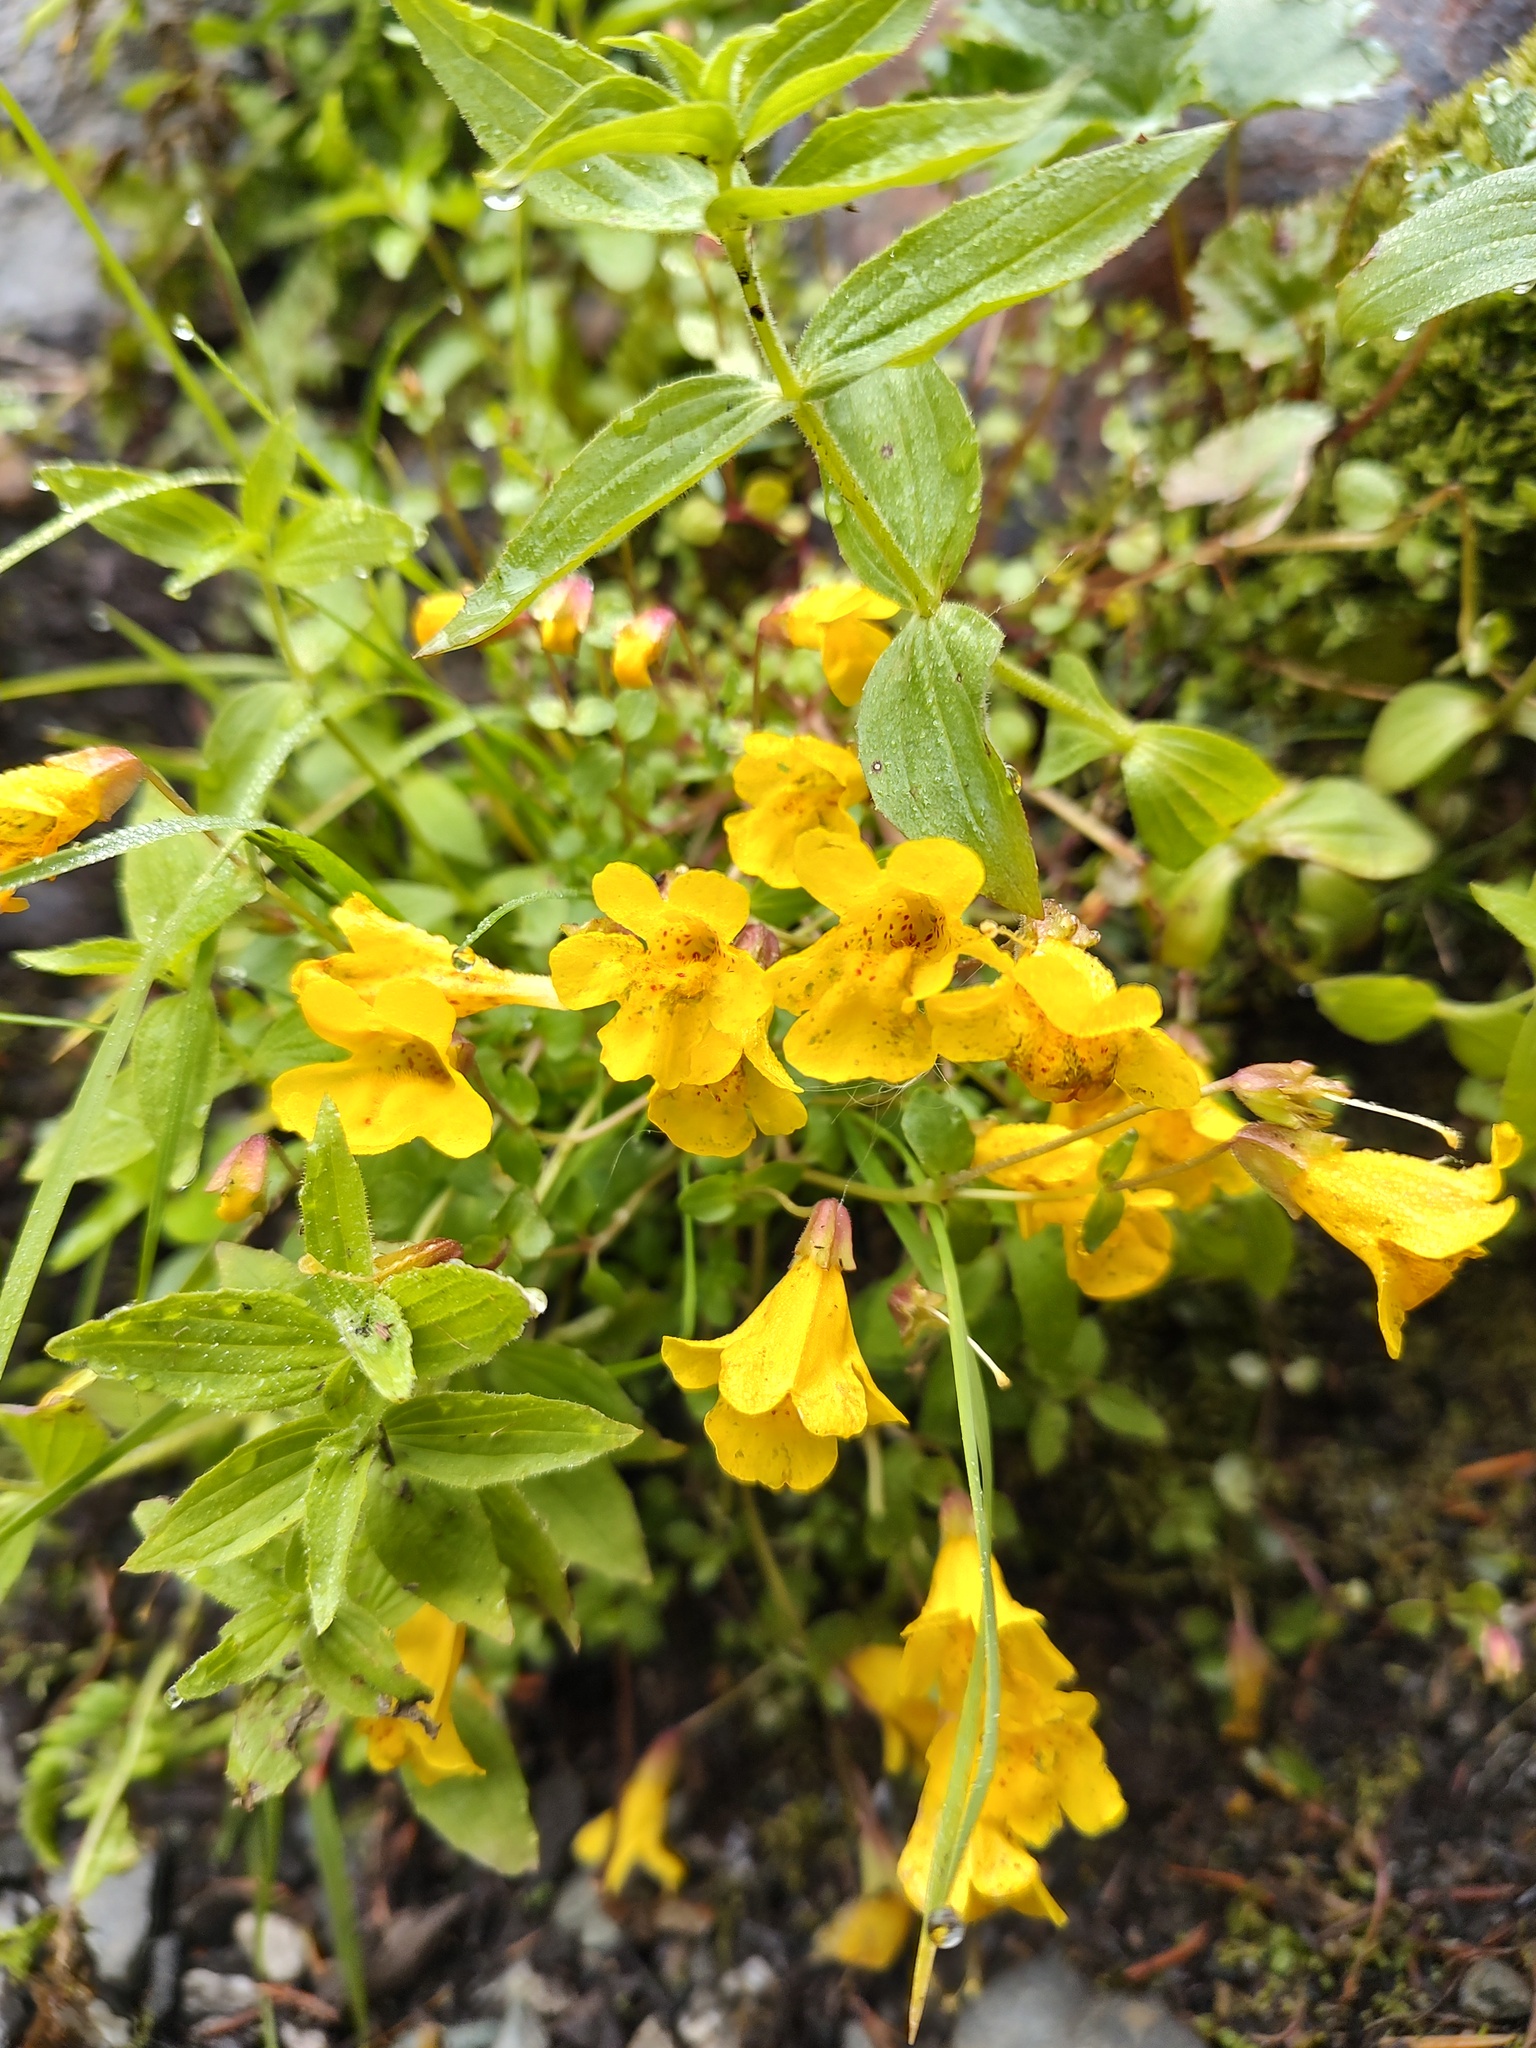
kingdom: Plantae
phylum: Tracheophyta
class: Magnoliopsida
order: Lamiales
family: Phrymaceae
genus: Erythranthe
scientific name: Erythranthe caespitosa
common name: Subalpine monkeyflower
